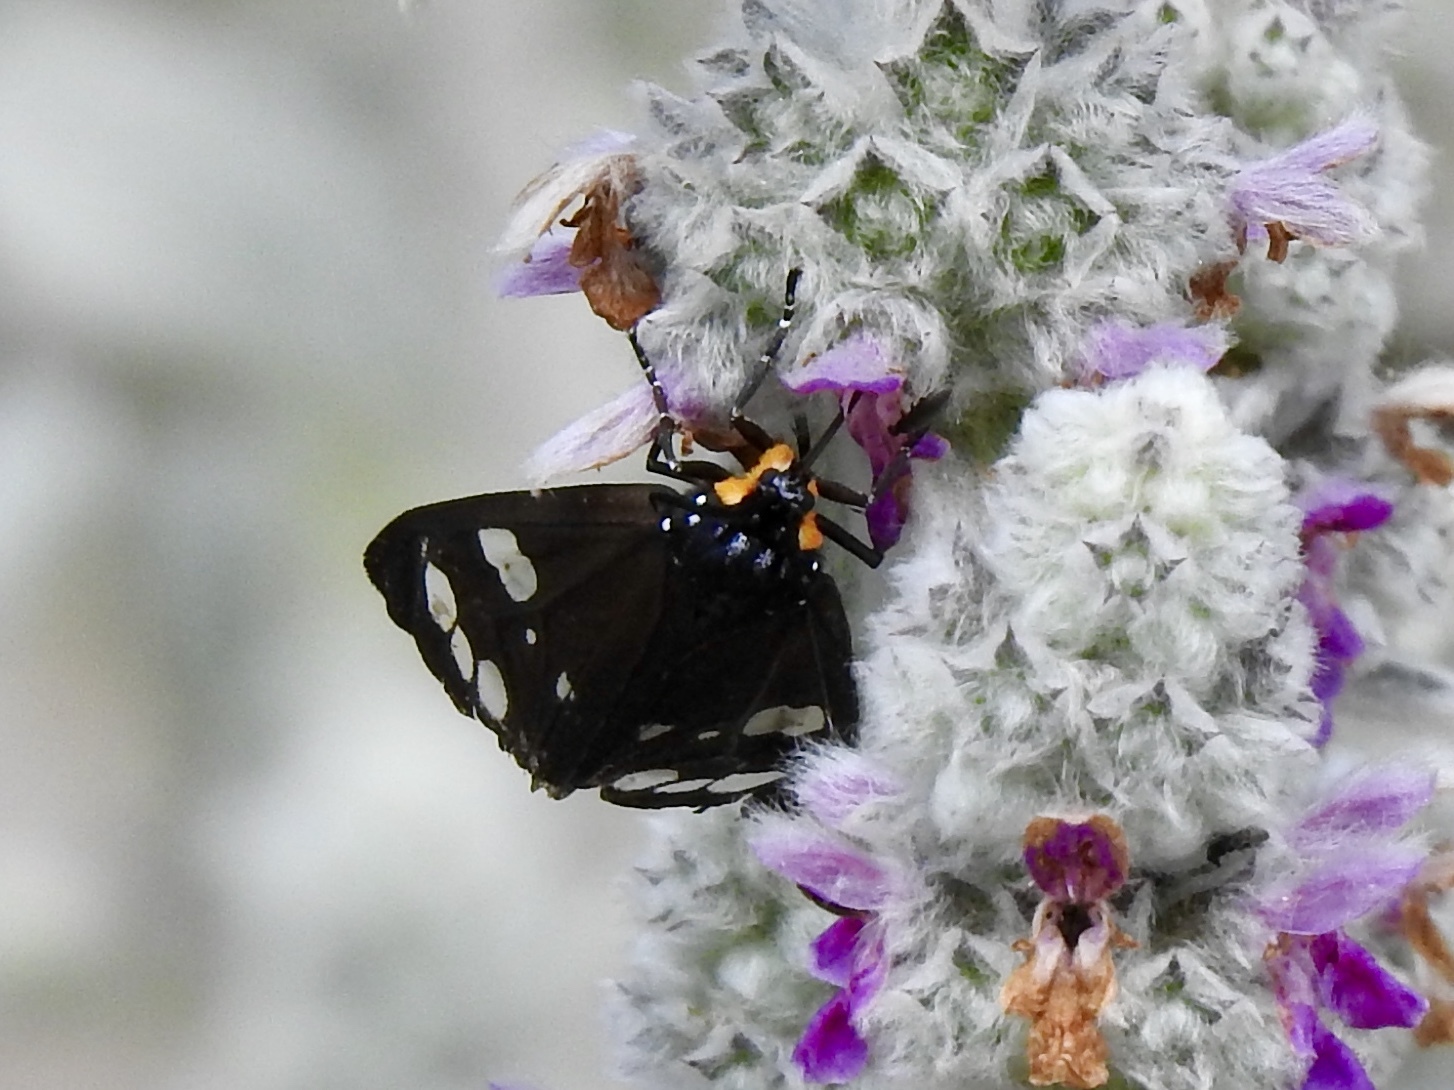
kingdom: Animalia
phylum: Arthropoda
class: Insecta
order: Lepidoptera
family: Erebidae
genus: Gnophaela
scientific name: Gnophaela clappiana
